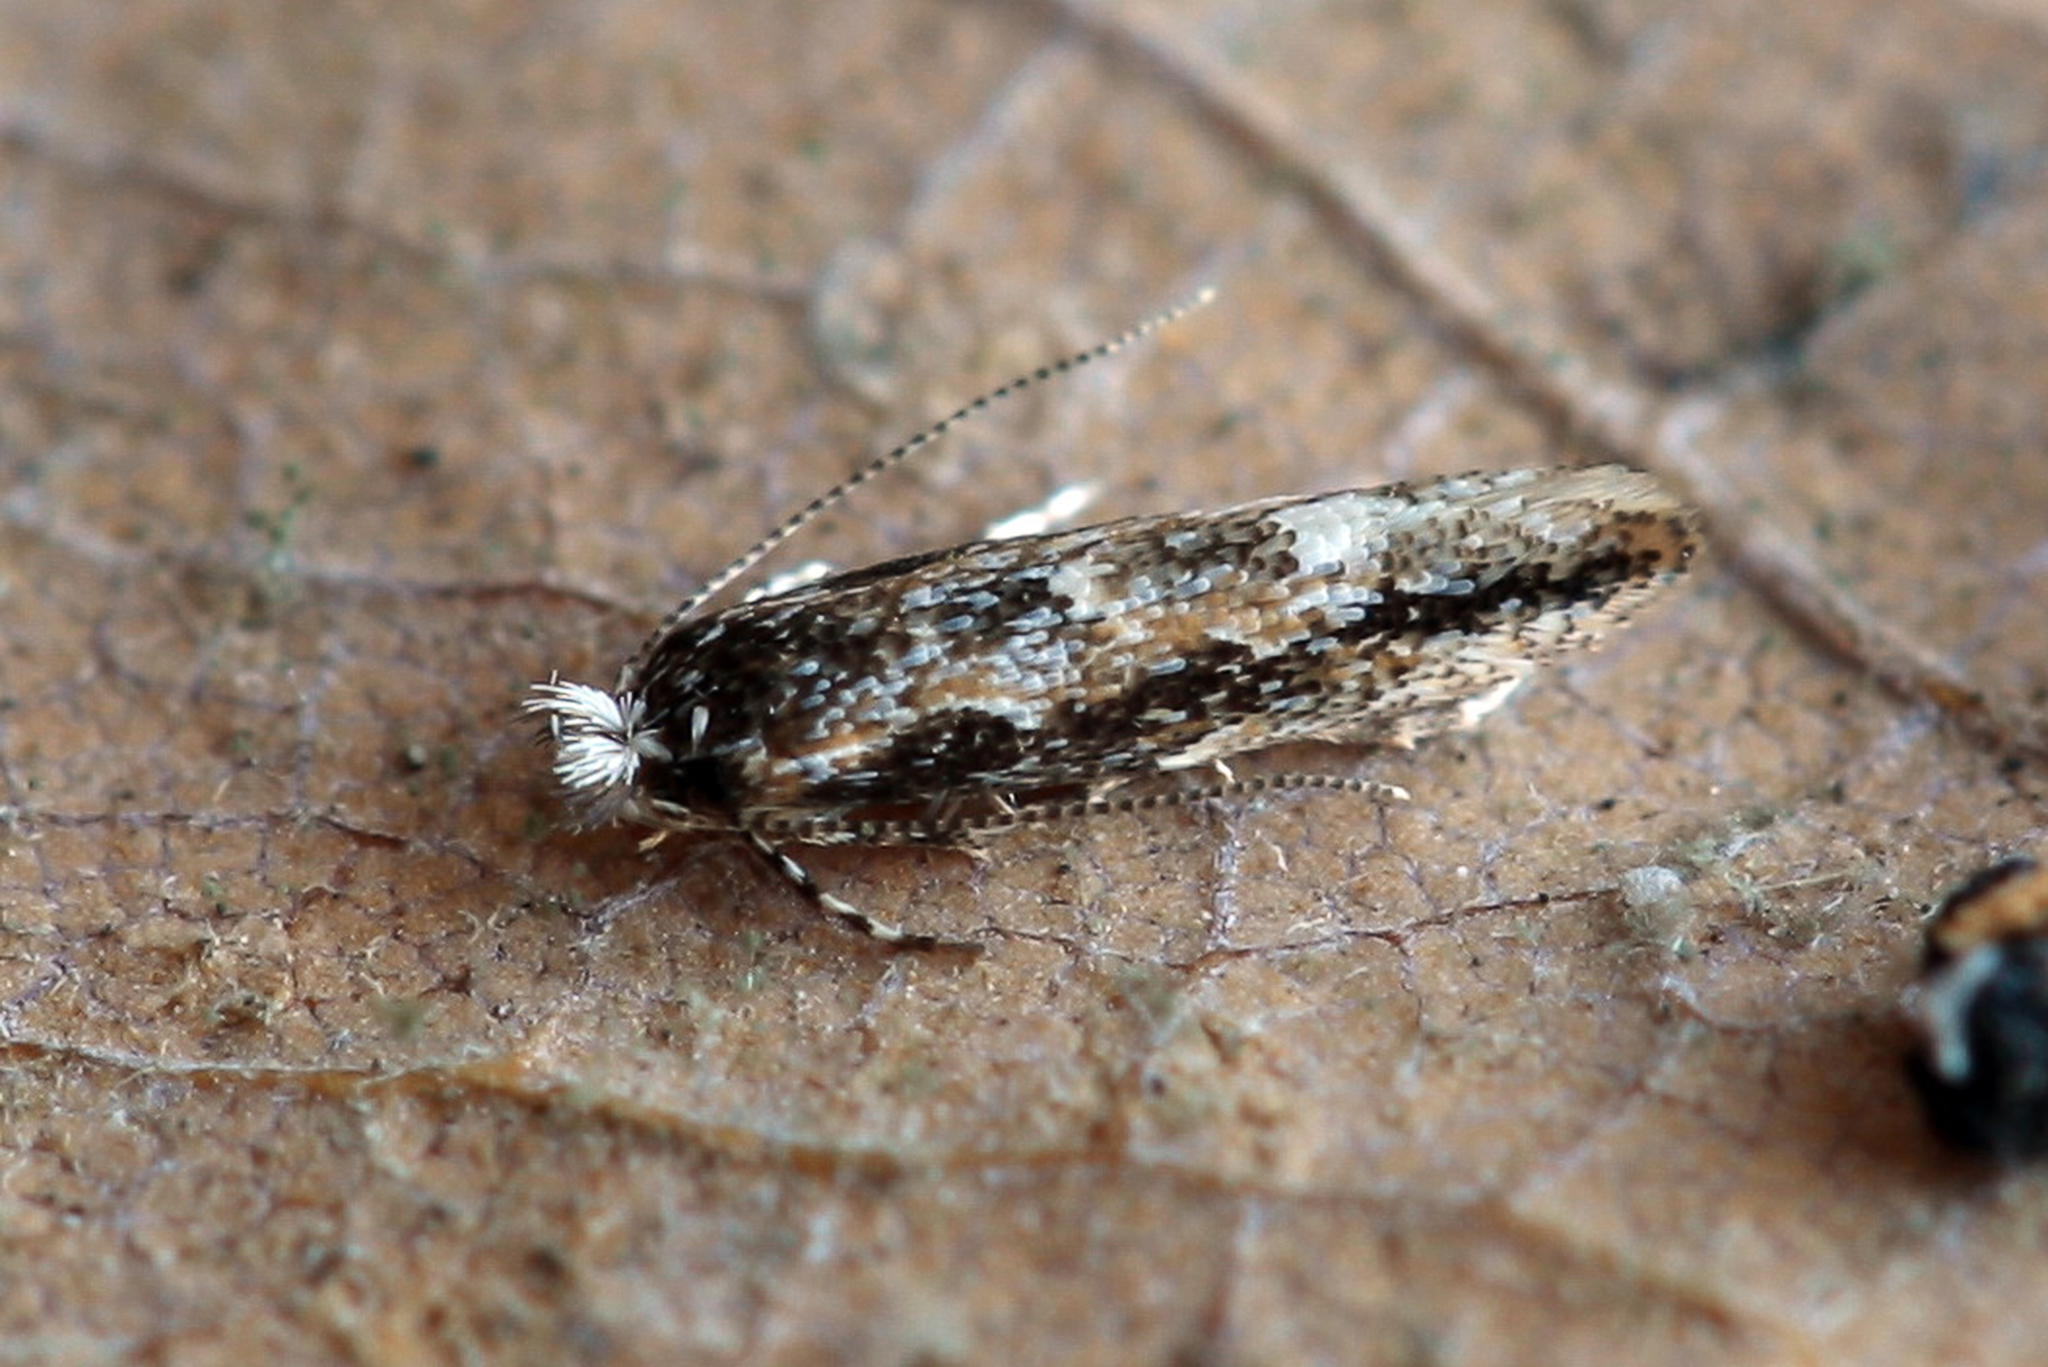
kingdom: Animalia
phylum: Arthropoda
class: Insecta
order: Lepidoptera
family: Gracillariidae
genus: Phyllonorycter
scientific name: Phyllonorycter issikii
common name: Linden midget
